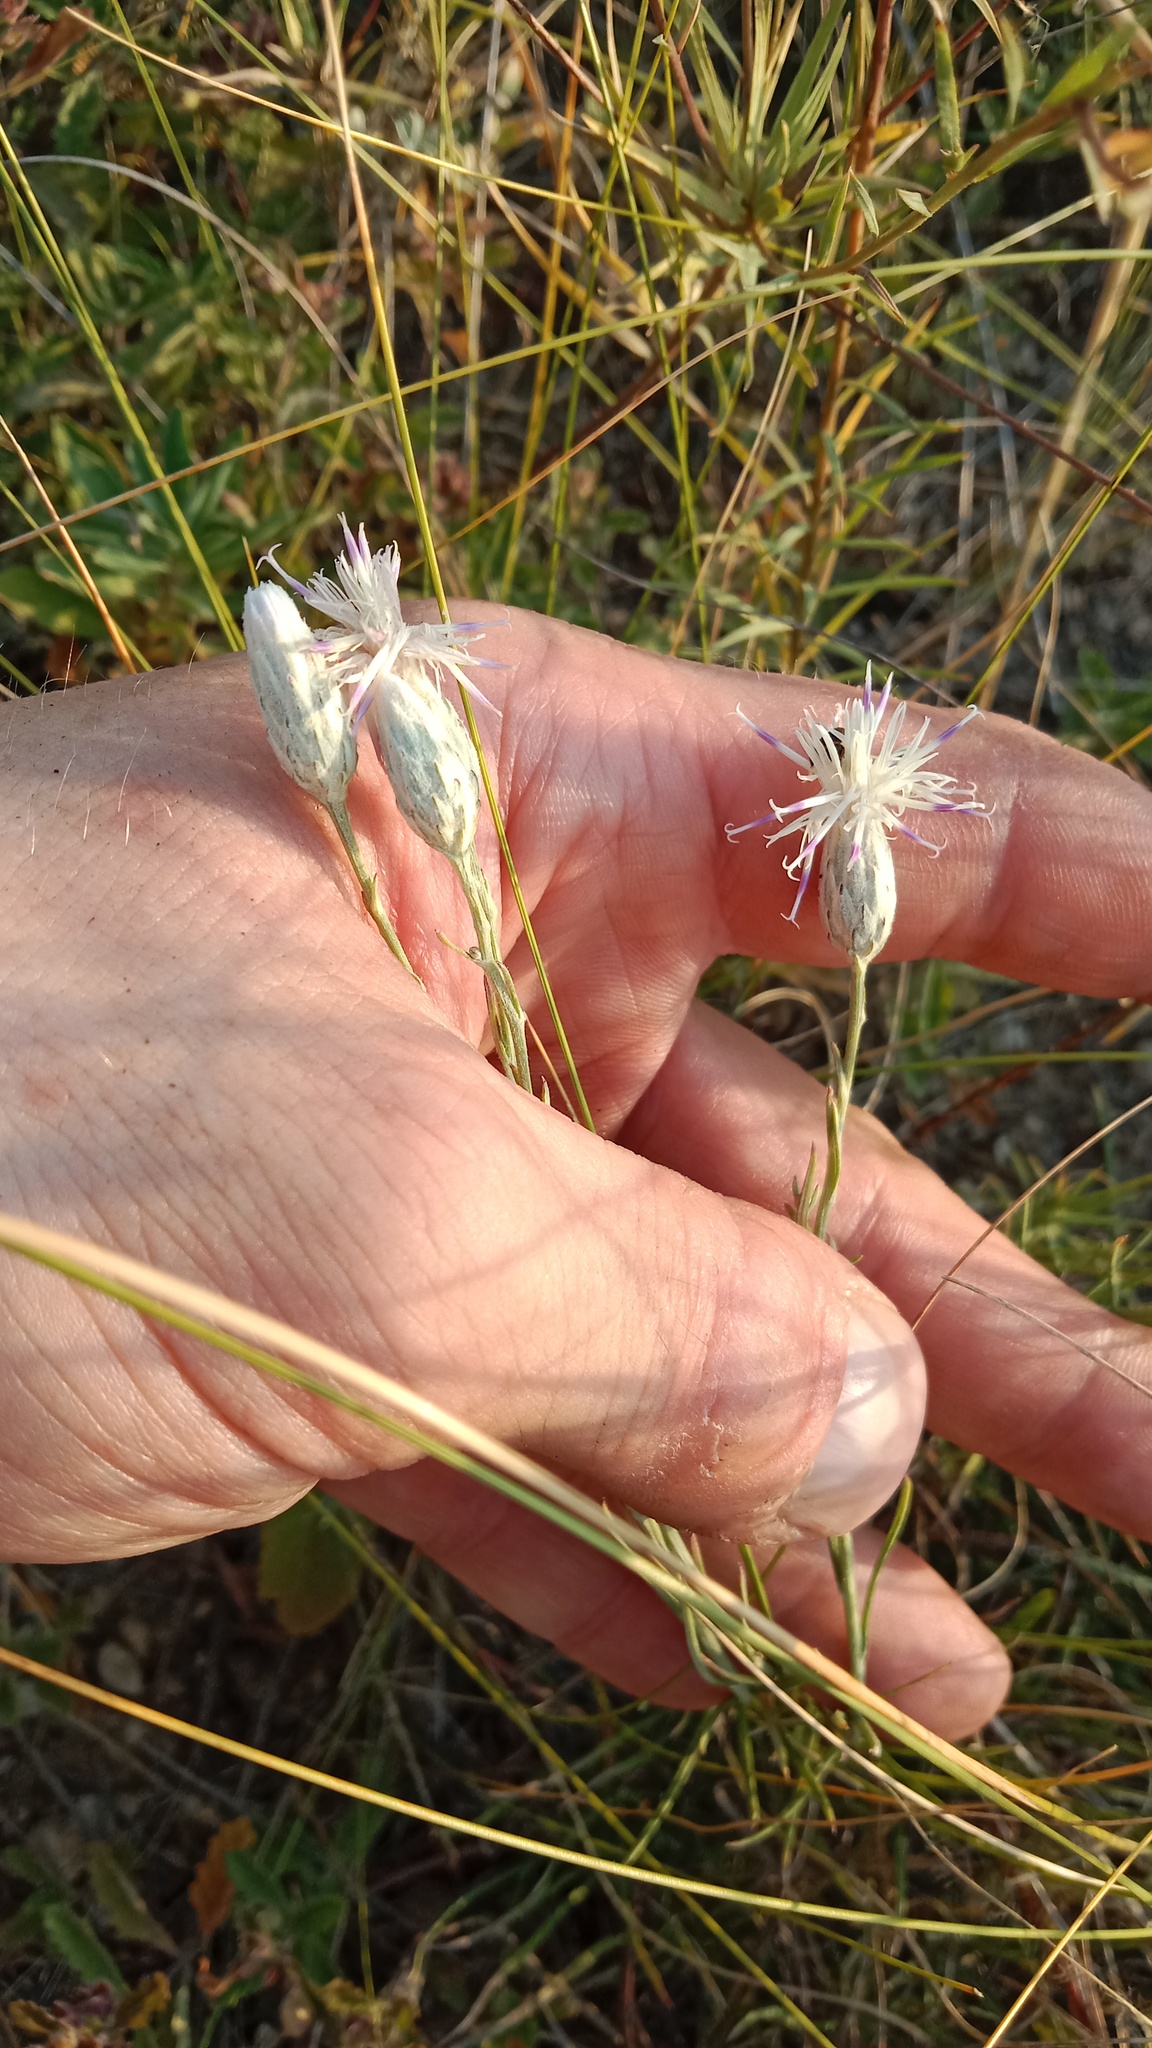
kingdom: Plantae
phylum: Tracheophyta
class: Magnoliopsida
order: Asterales
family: Asteraceae
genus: Jurinea
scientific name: Jurinea stoechadifolia
